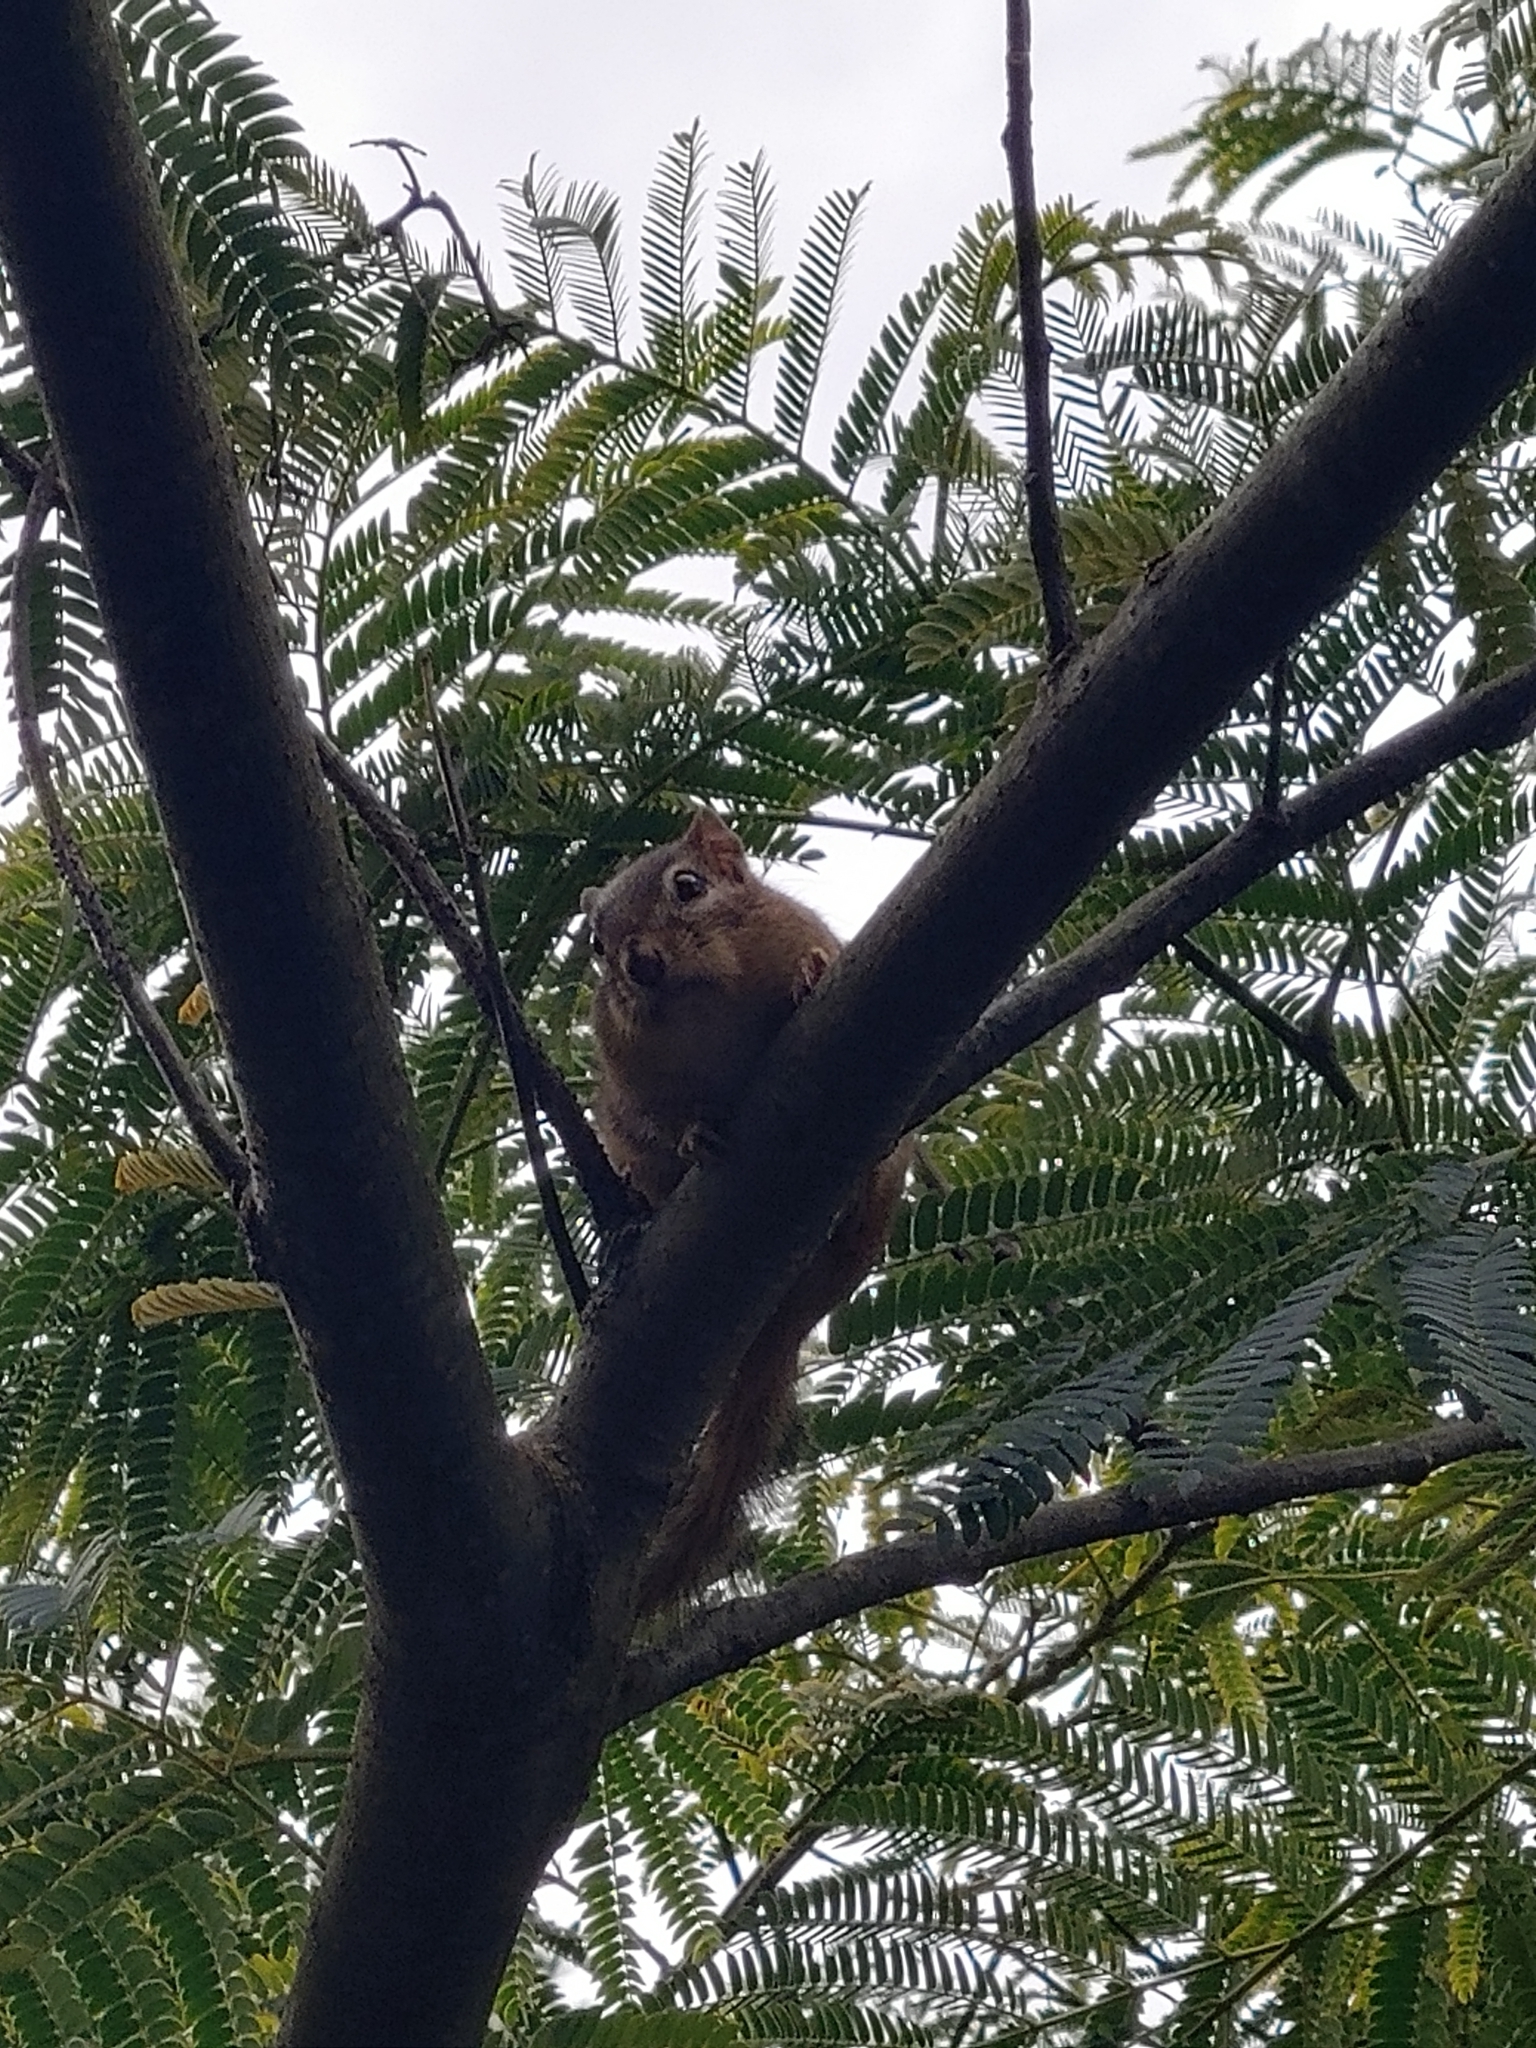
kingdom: Animalia
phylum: Chordata
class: Mammalia
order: Rodentia
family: Sciuridae
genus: Tamias
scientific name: Tamias striatus
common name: Eastern chipmunk
